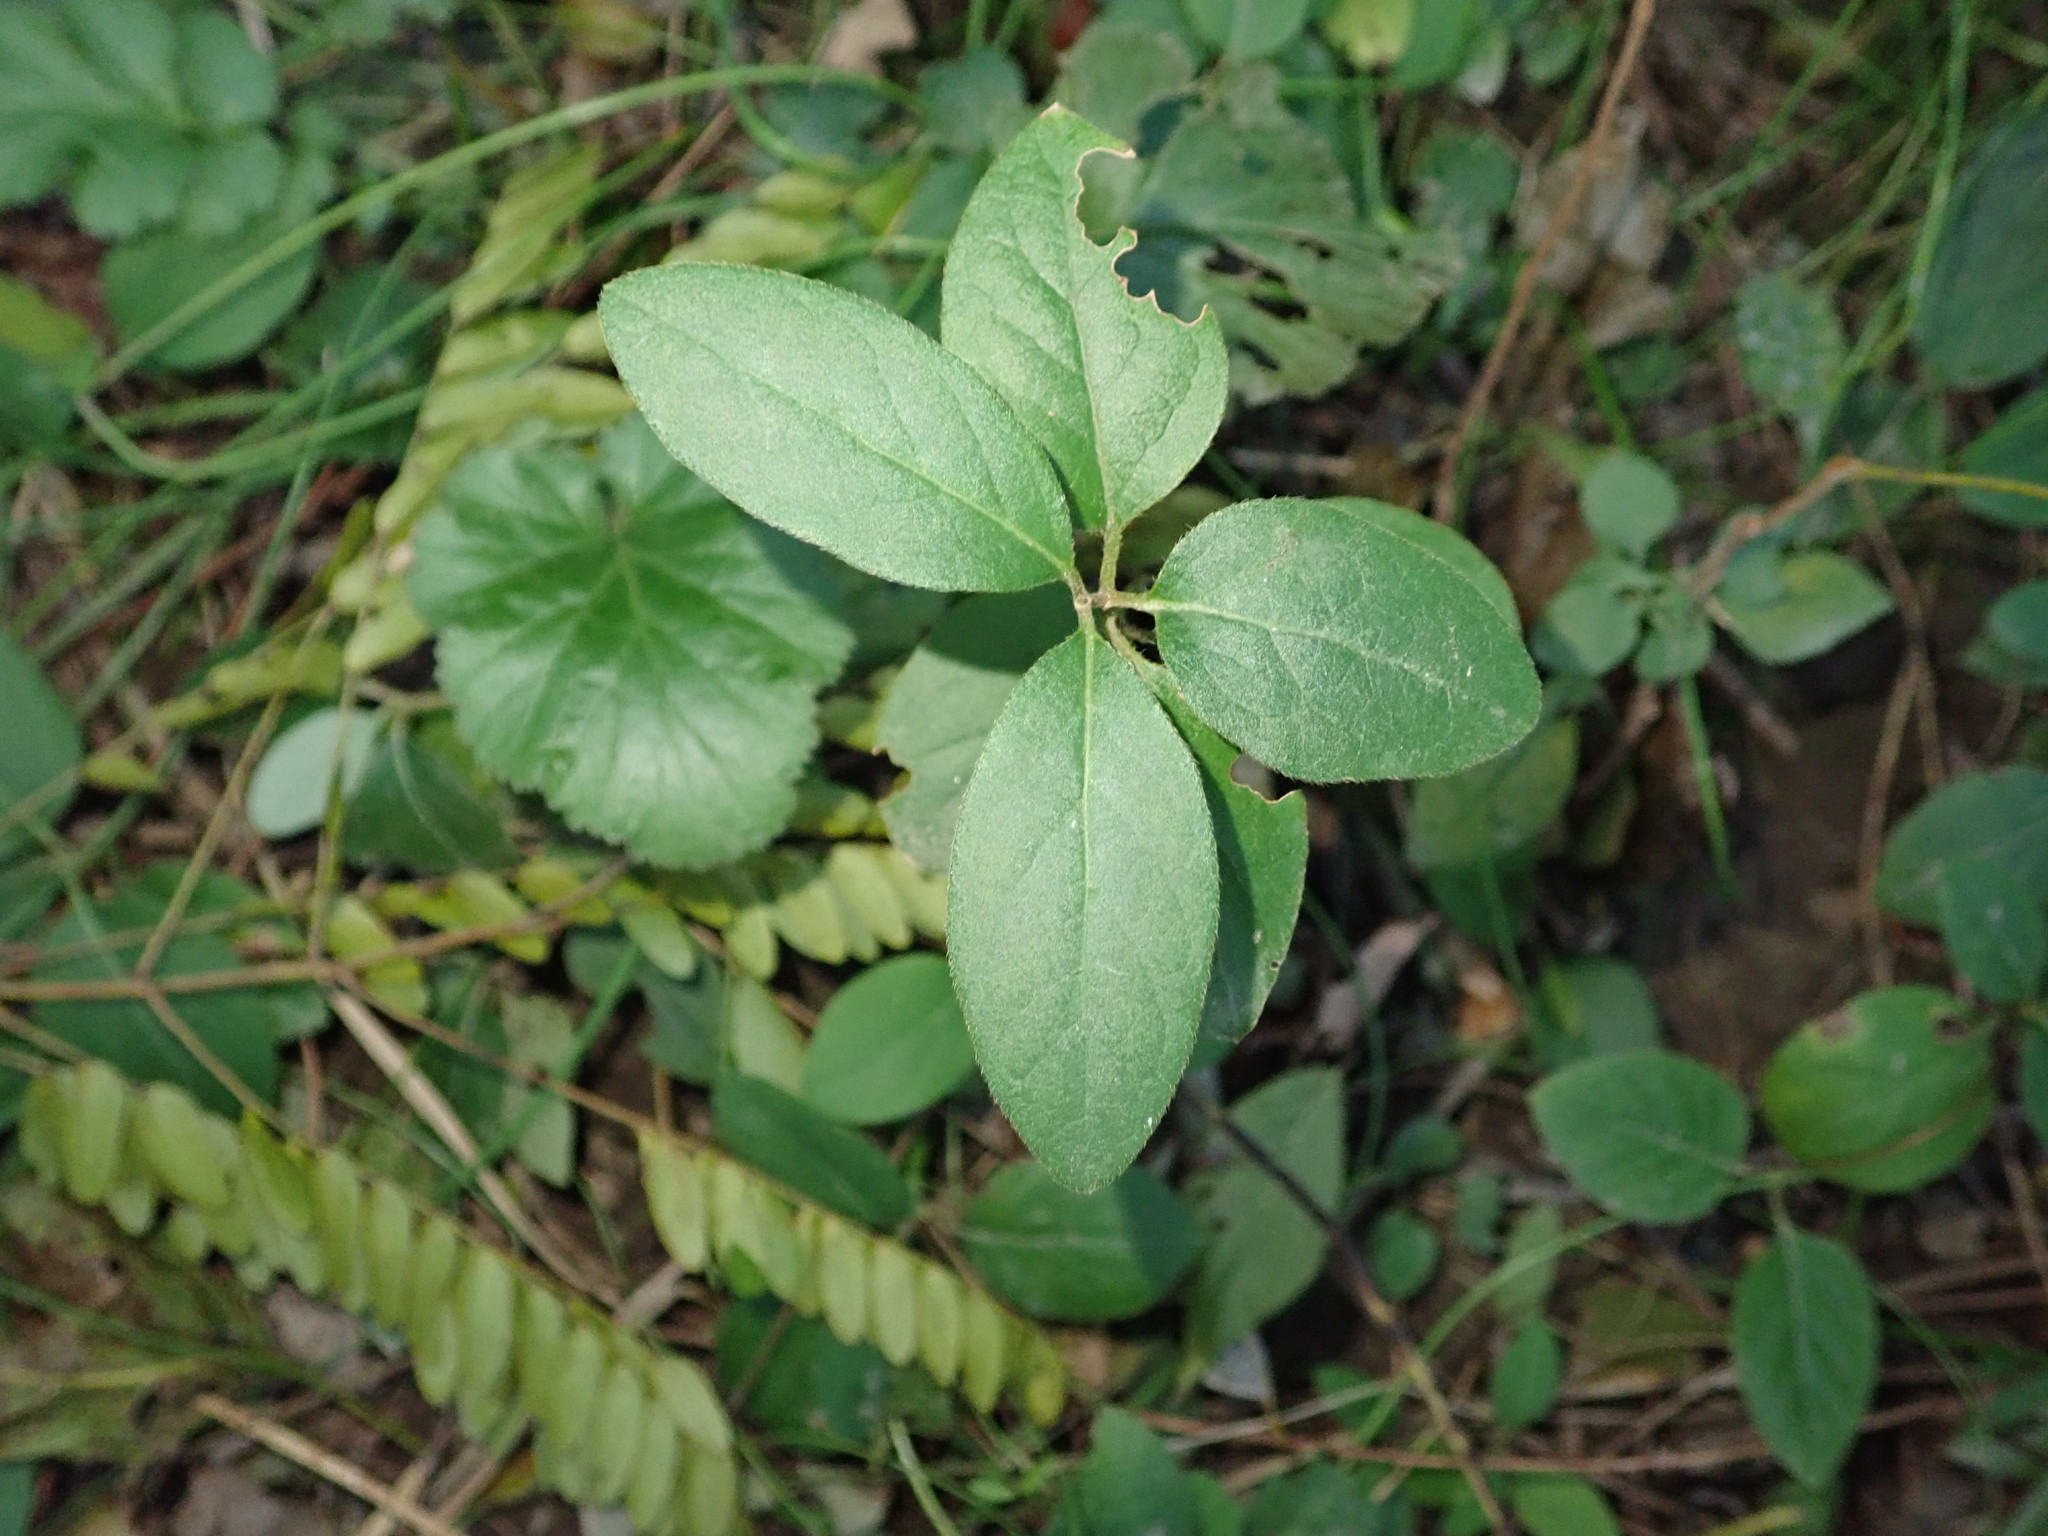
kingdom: Plantae
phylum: Tracheophyta
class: Magnoliopsida
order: Dipsacales
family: Caprifoliaceae
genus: Lonicera
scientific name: Lonicera japonica
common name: Japanese honeysuckle
